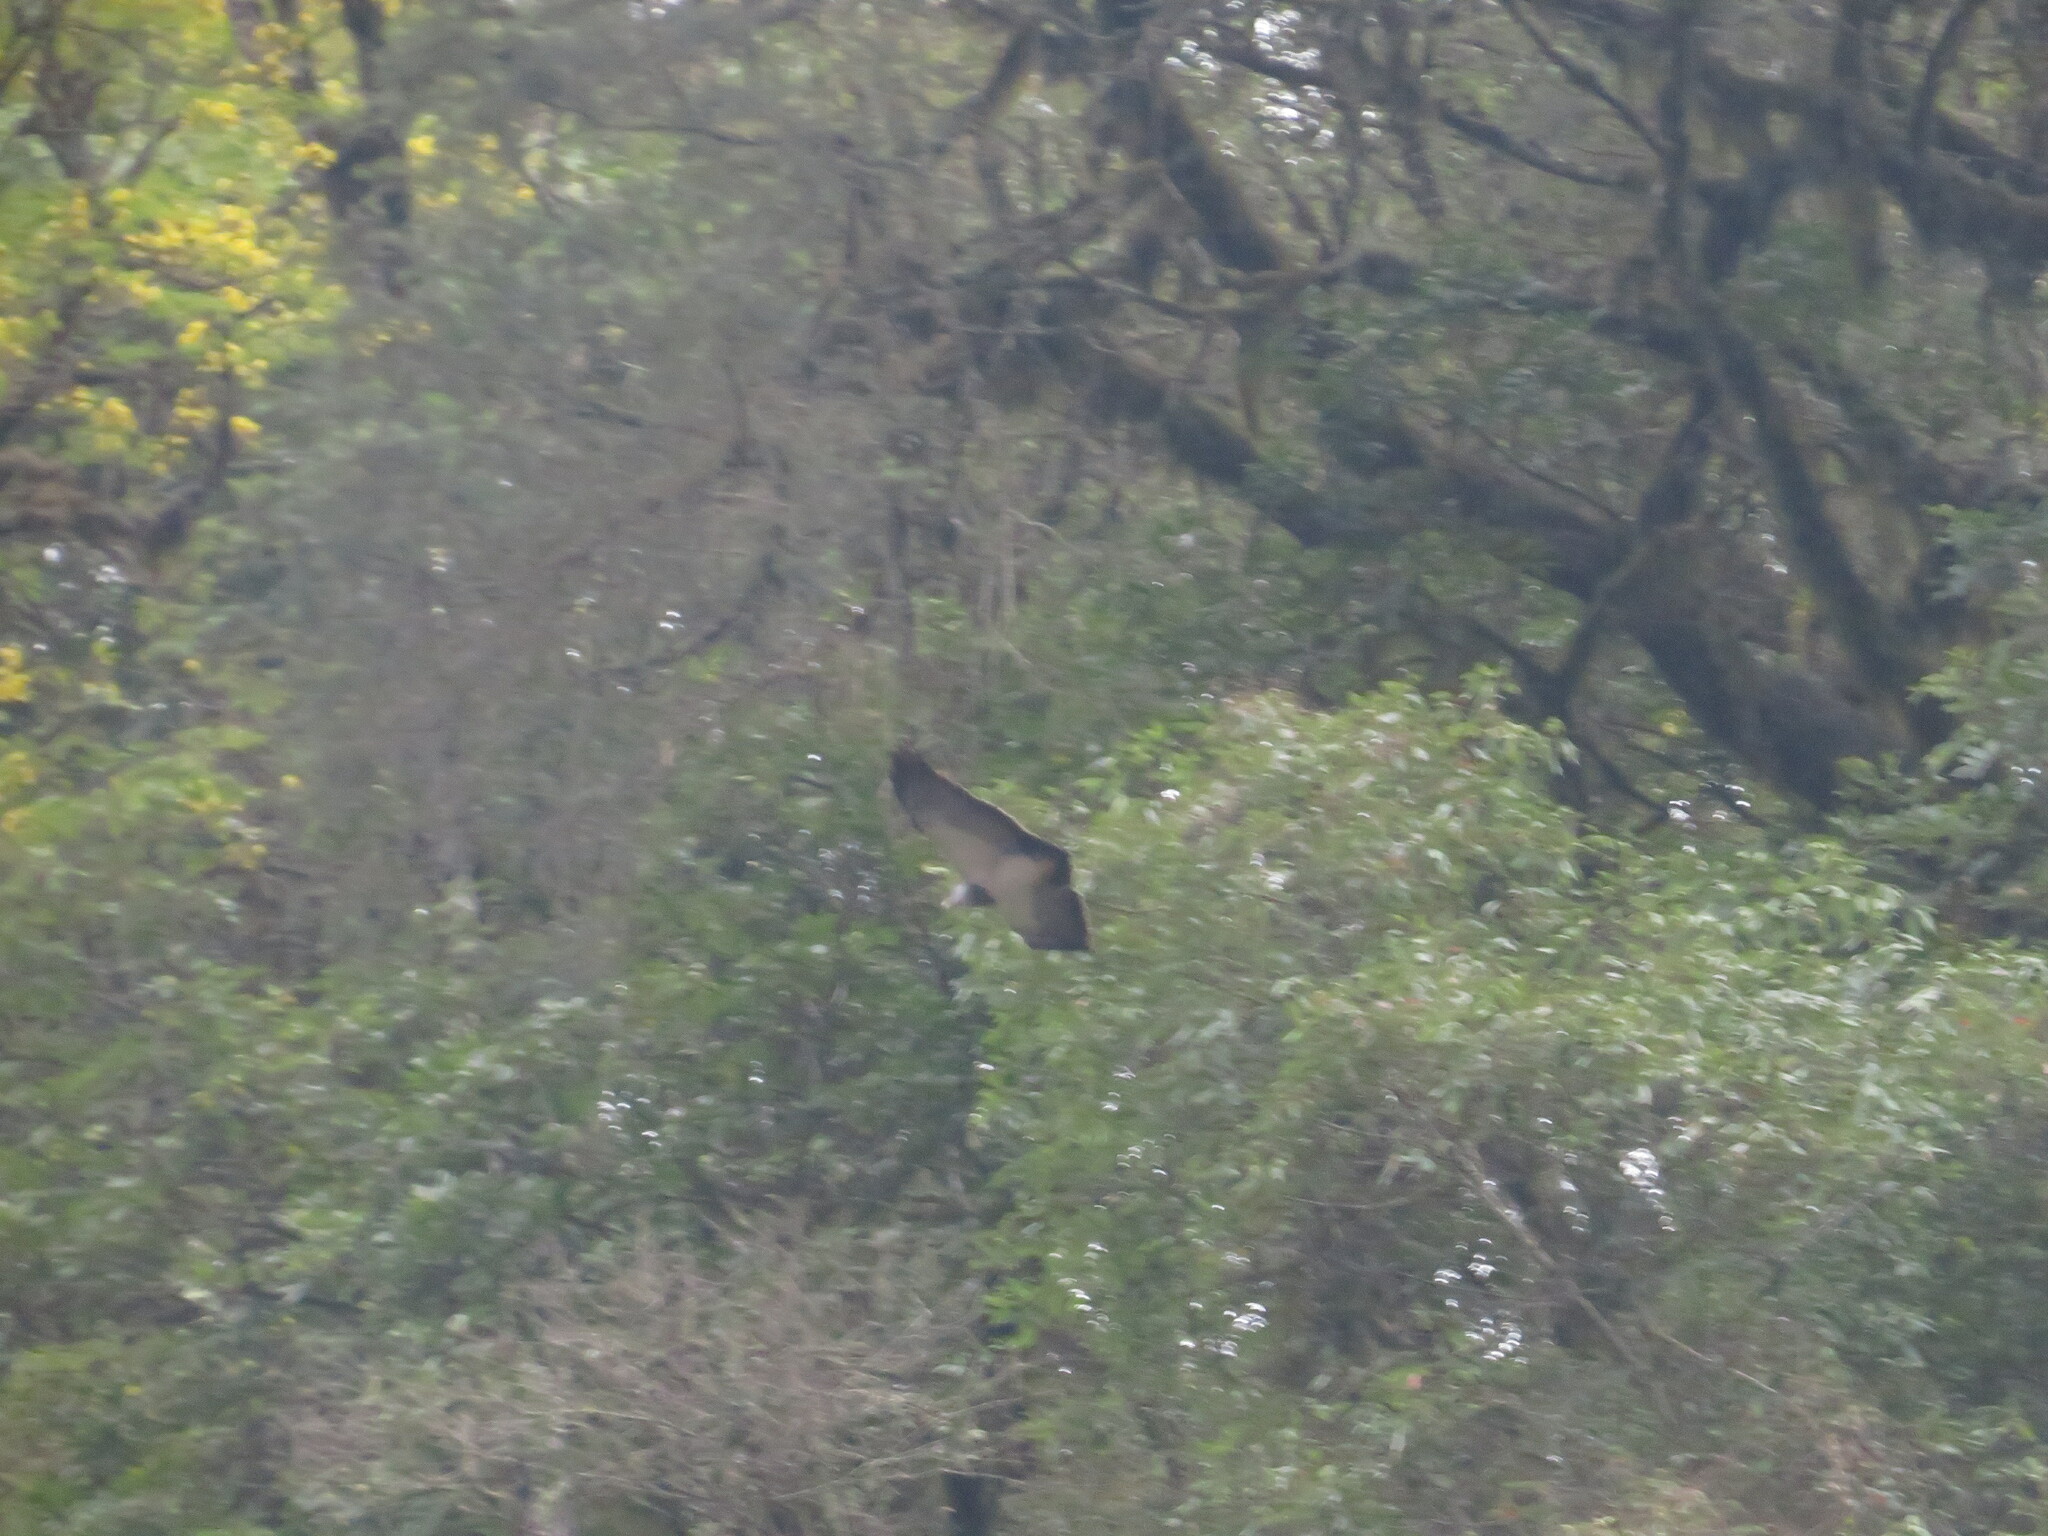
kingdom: Animalia
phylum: Chordata
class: Aves
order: Accipitriformes
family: Accipitridae
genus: Geranoaetus
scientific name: Geranoaetus melanoleucus
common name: Black-chested buzzard-eagle
